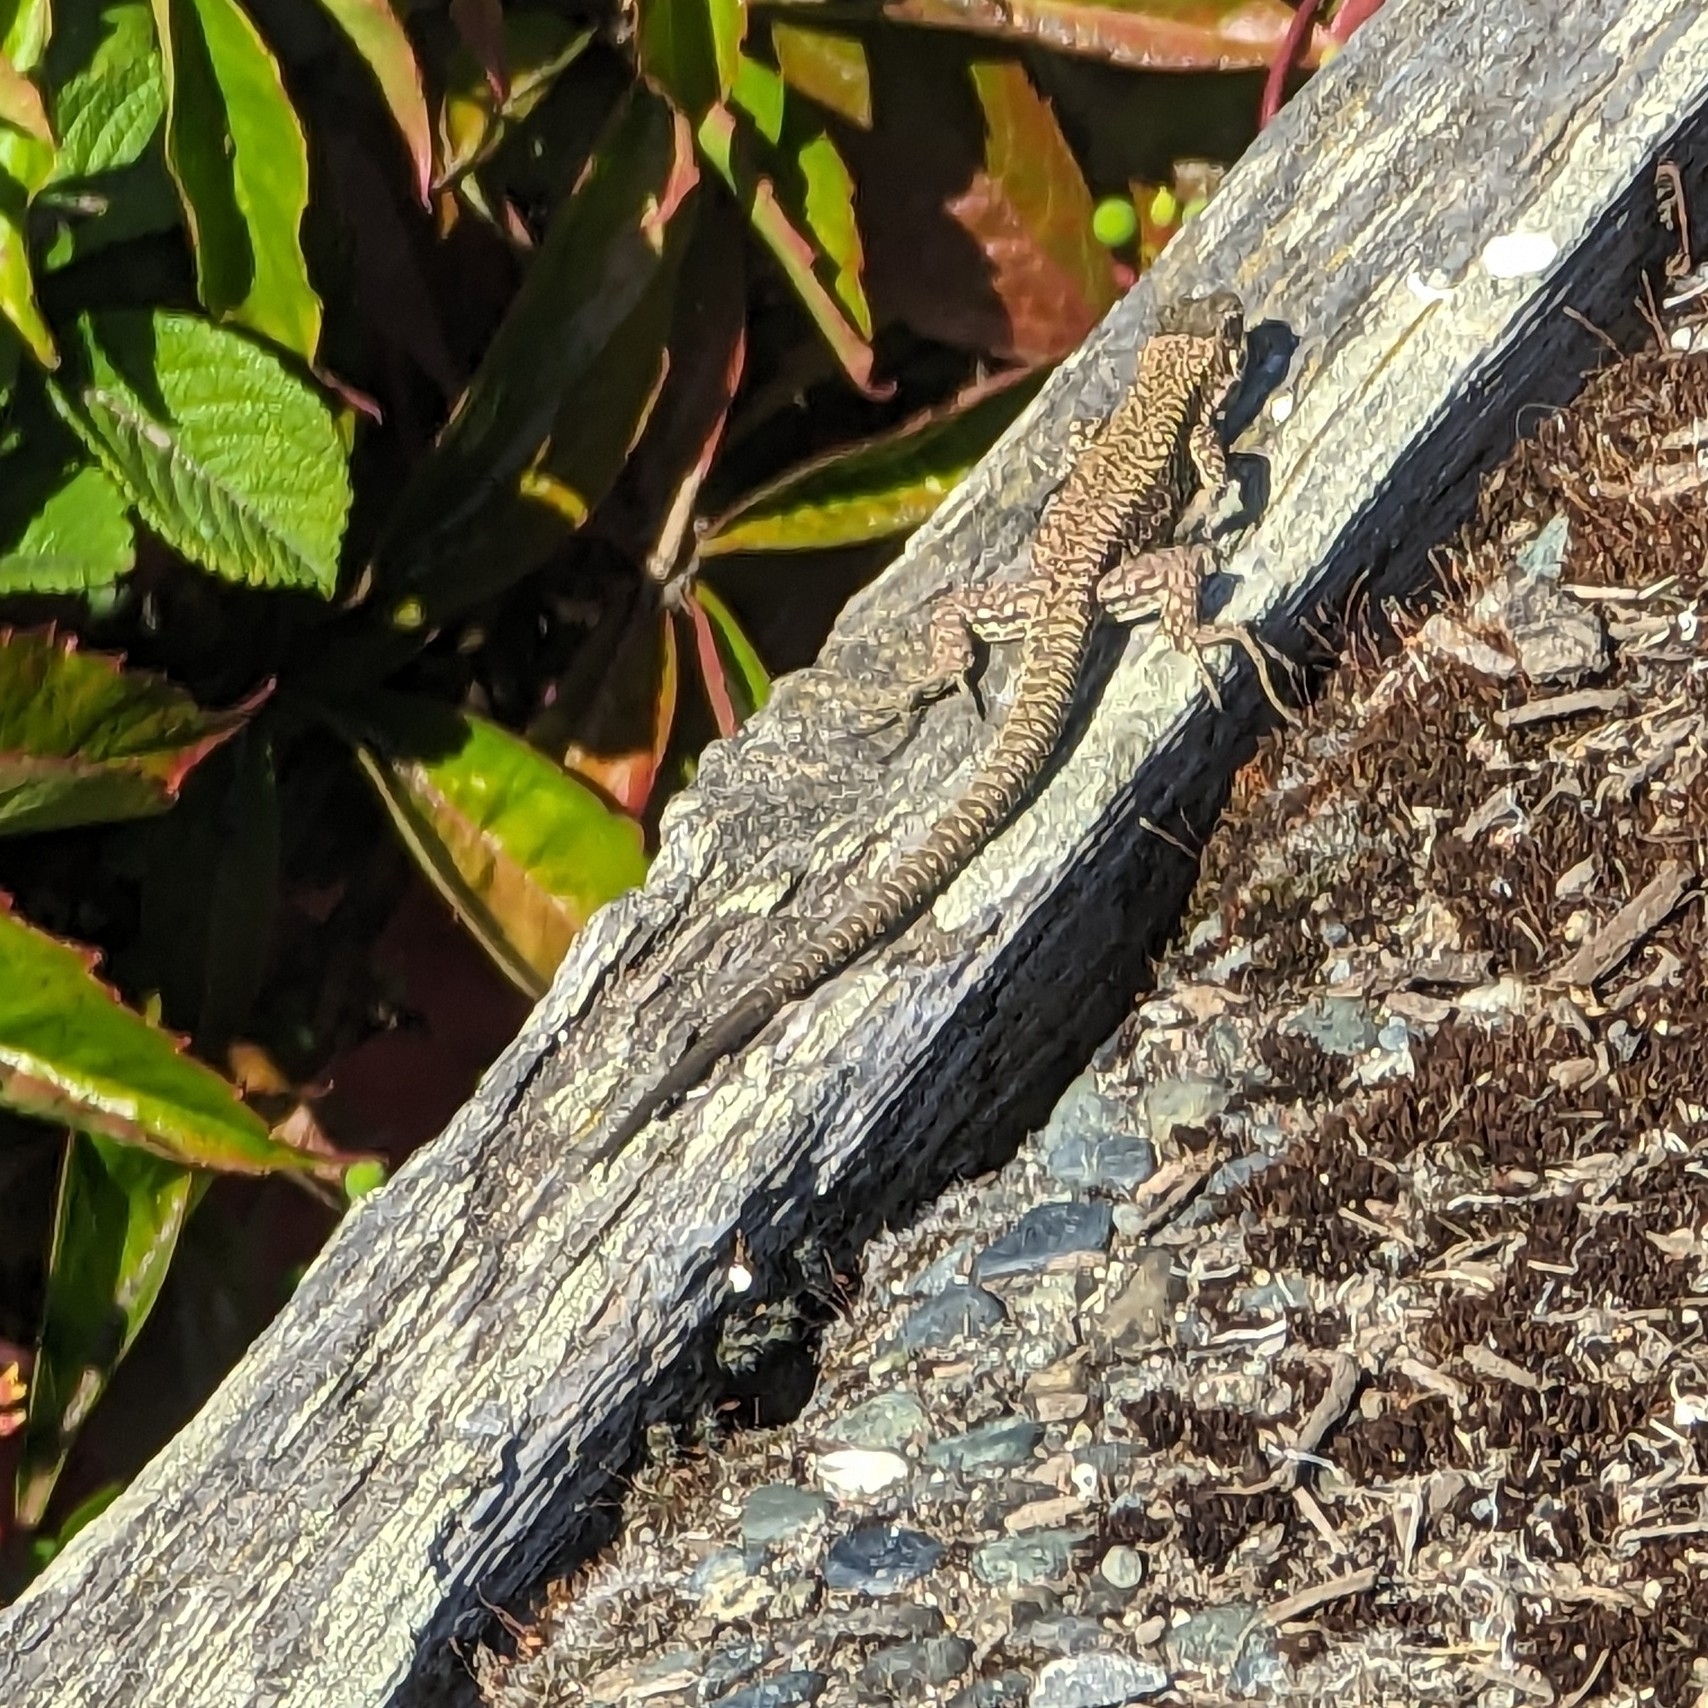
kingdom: Animalia
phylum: Chordata
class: Squamata
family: Lacertidae
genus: Podarcis
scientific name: Podarcis muralis
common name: Common wall lizard
